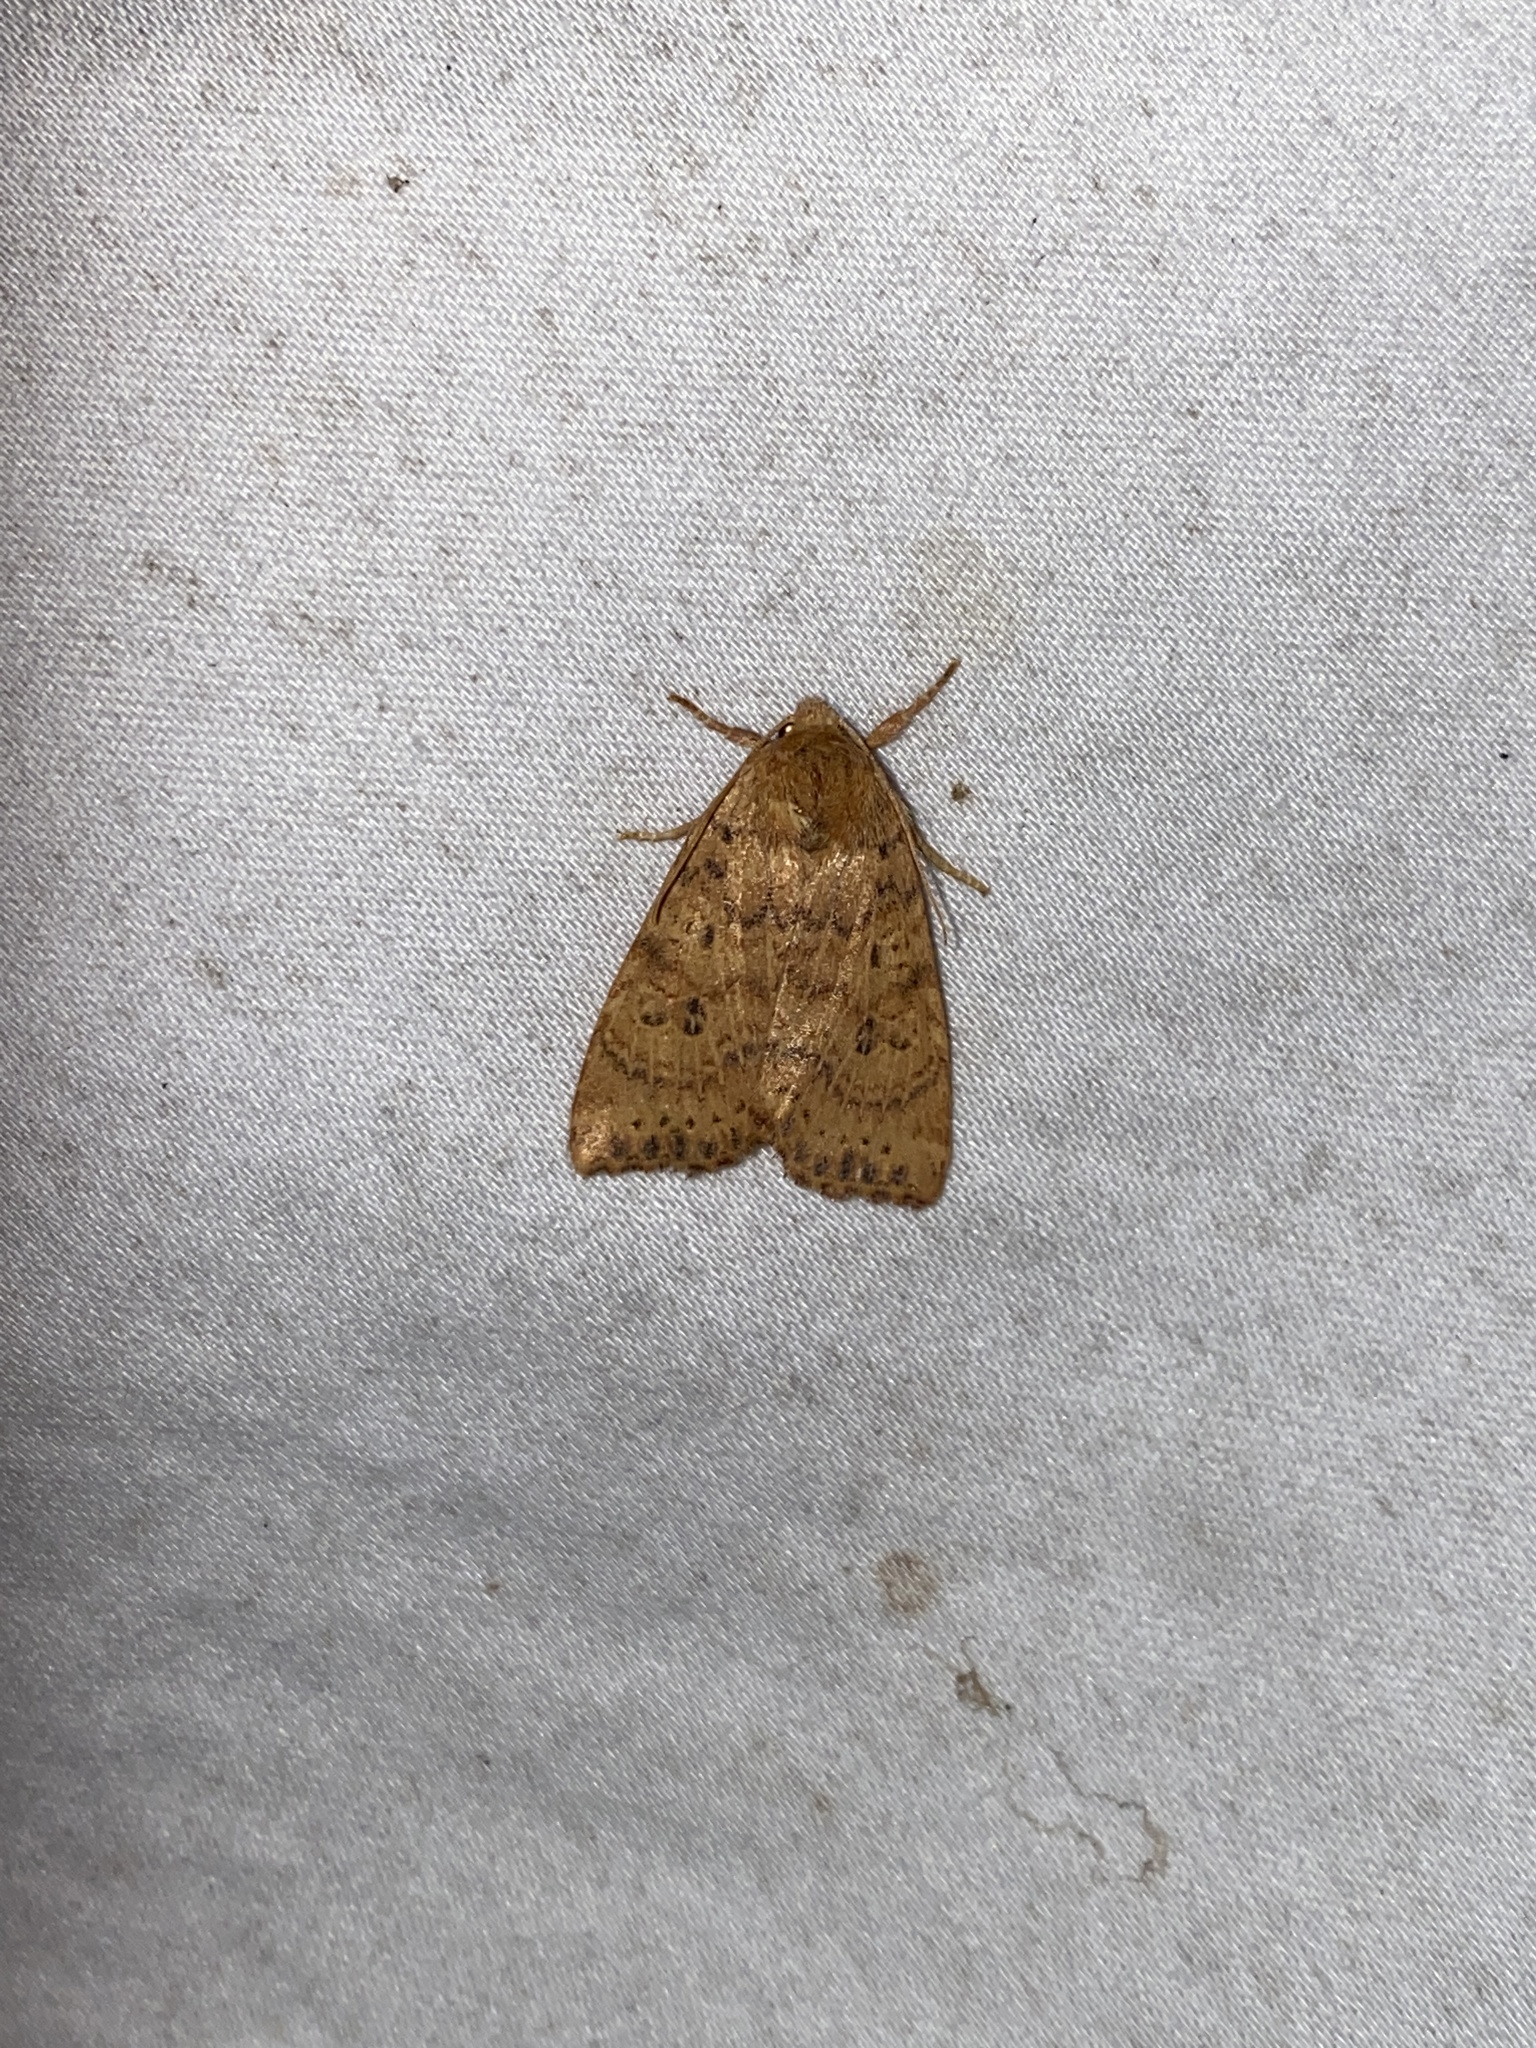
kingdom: Animalia
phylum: Arthropoda
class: Insecta
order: Lepidoptera
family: Noctuidae
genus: Anathix
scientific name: Anathix ralla
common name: Dotted sallow
